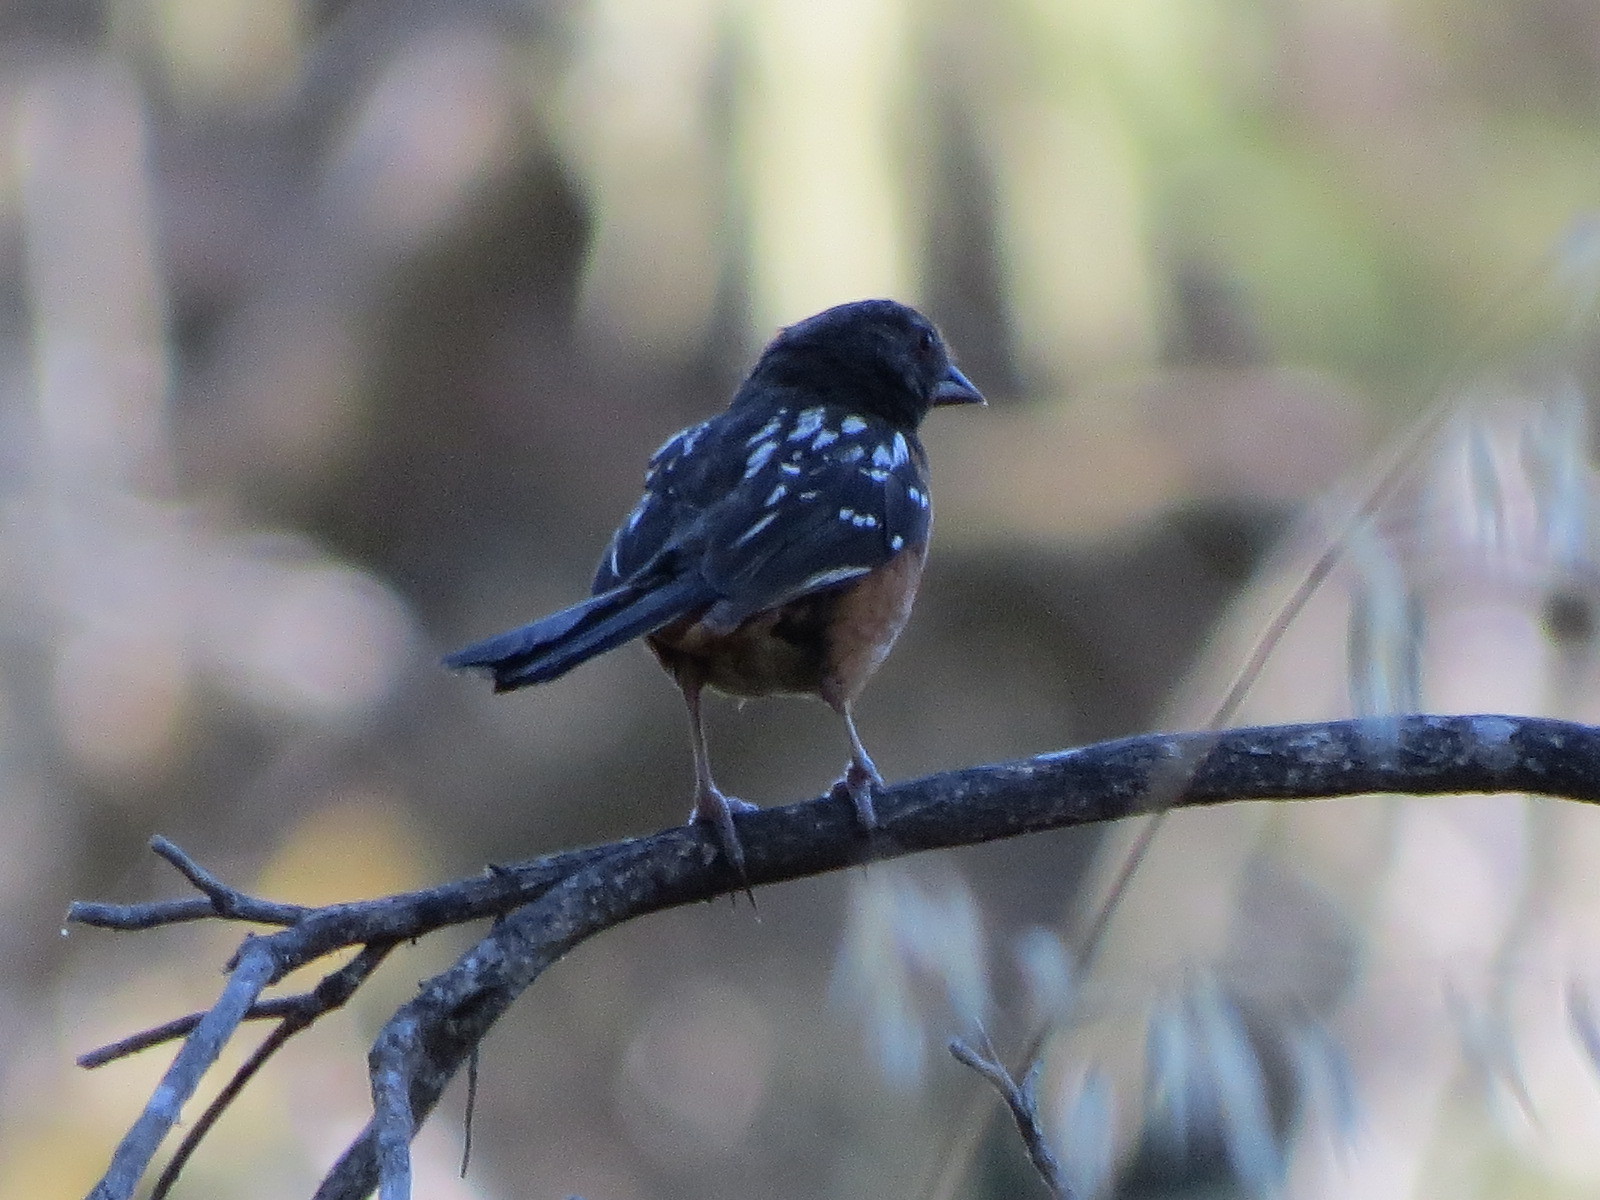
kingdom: Animalia
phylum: Chordata
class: Aves
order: Passeriformes
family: Passerellidae
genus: Pipilo
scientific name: Pipilo maculatus
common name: Spotted towhee
